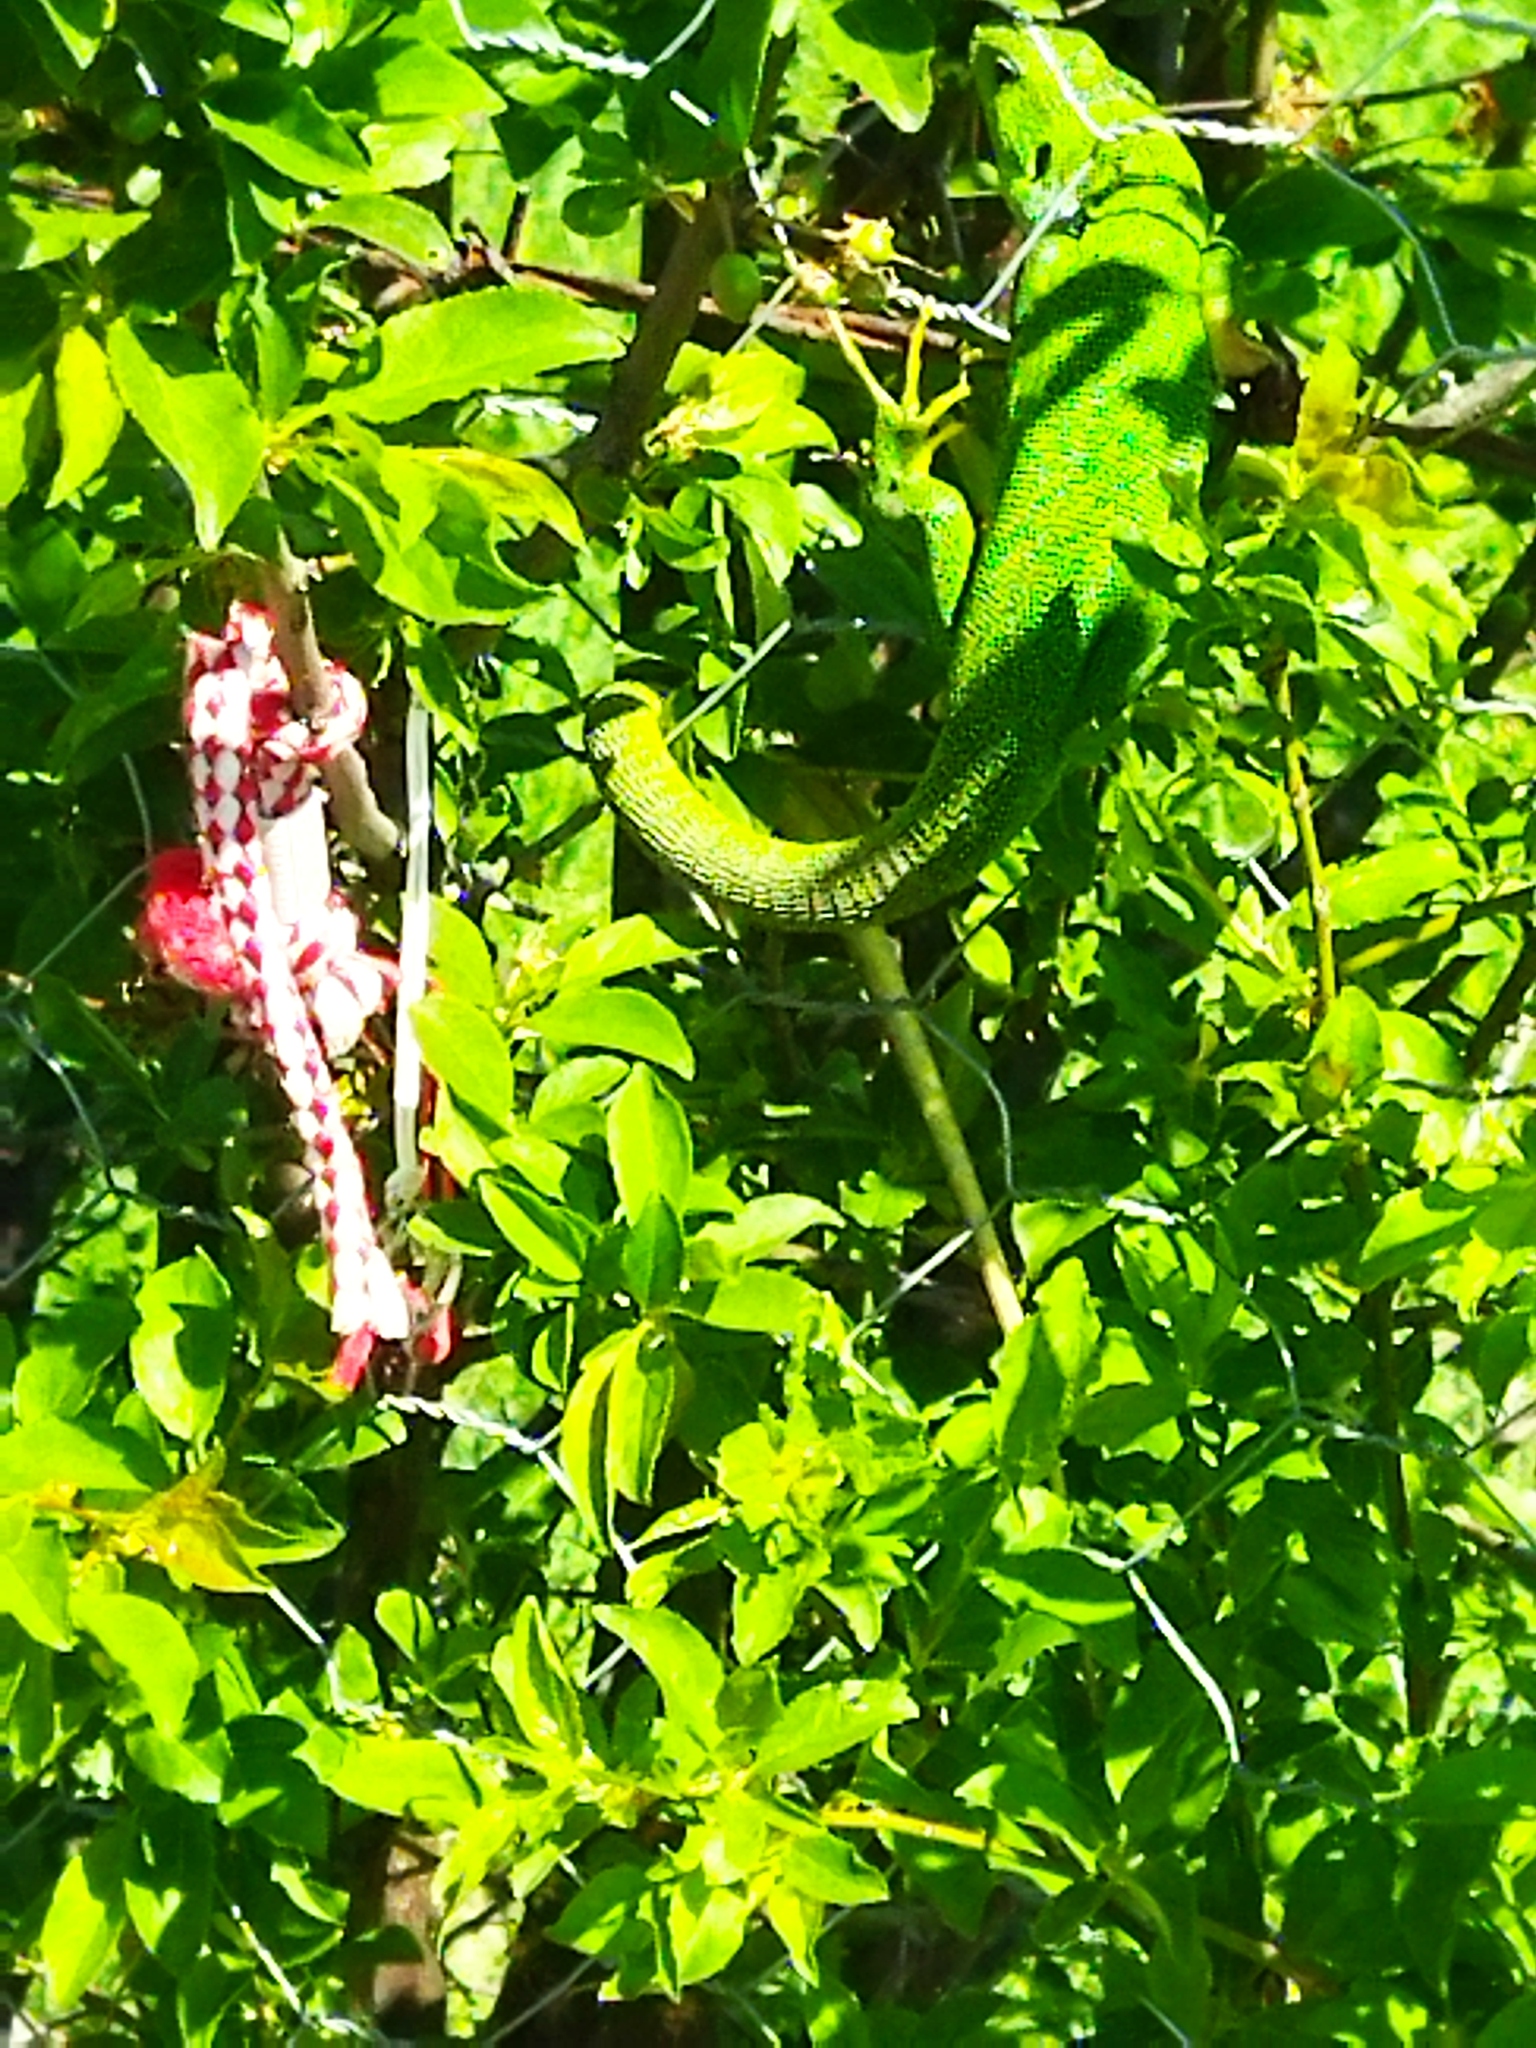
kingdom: Animalia
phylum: Chordata
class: Squamata
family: Lacertidae
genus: Lacerta
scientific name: Lacerta diplochondrodes
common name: Rhodos green lizard
